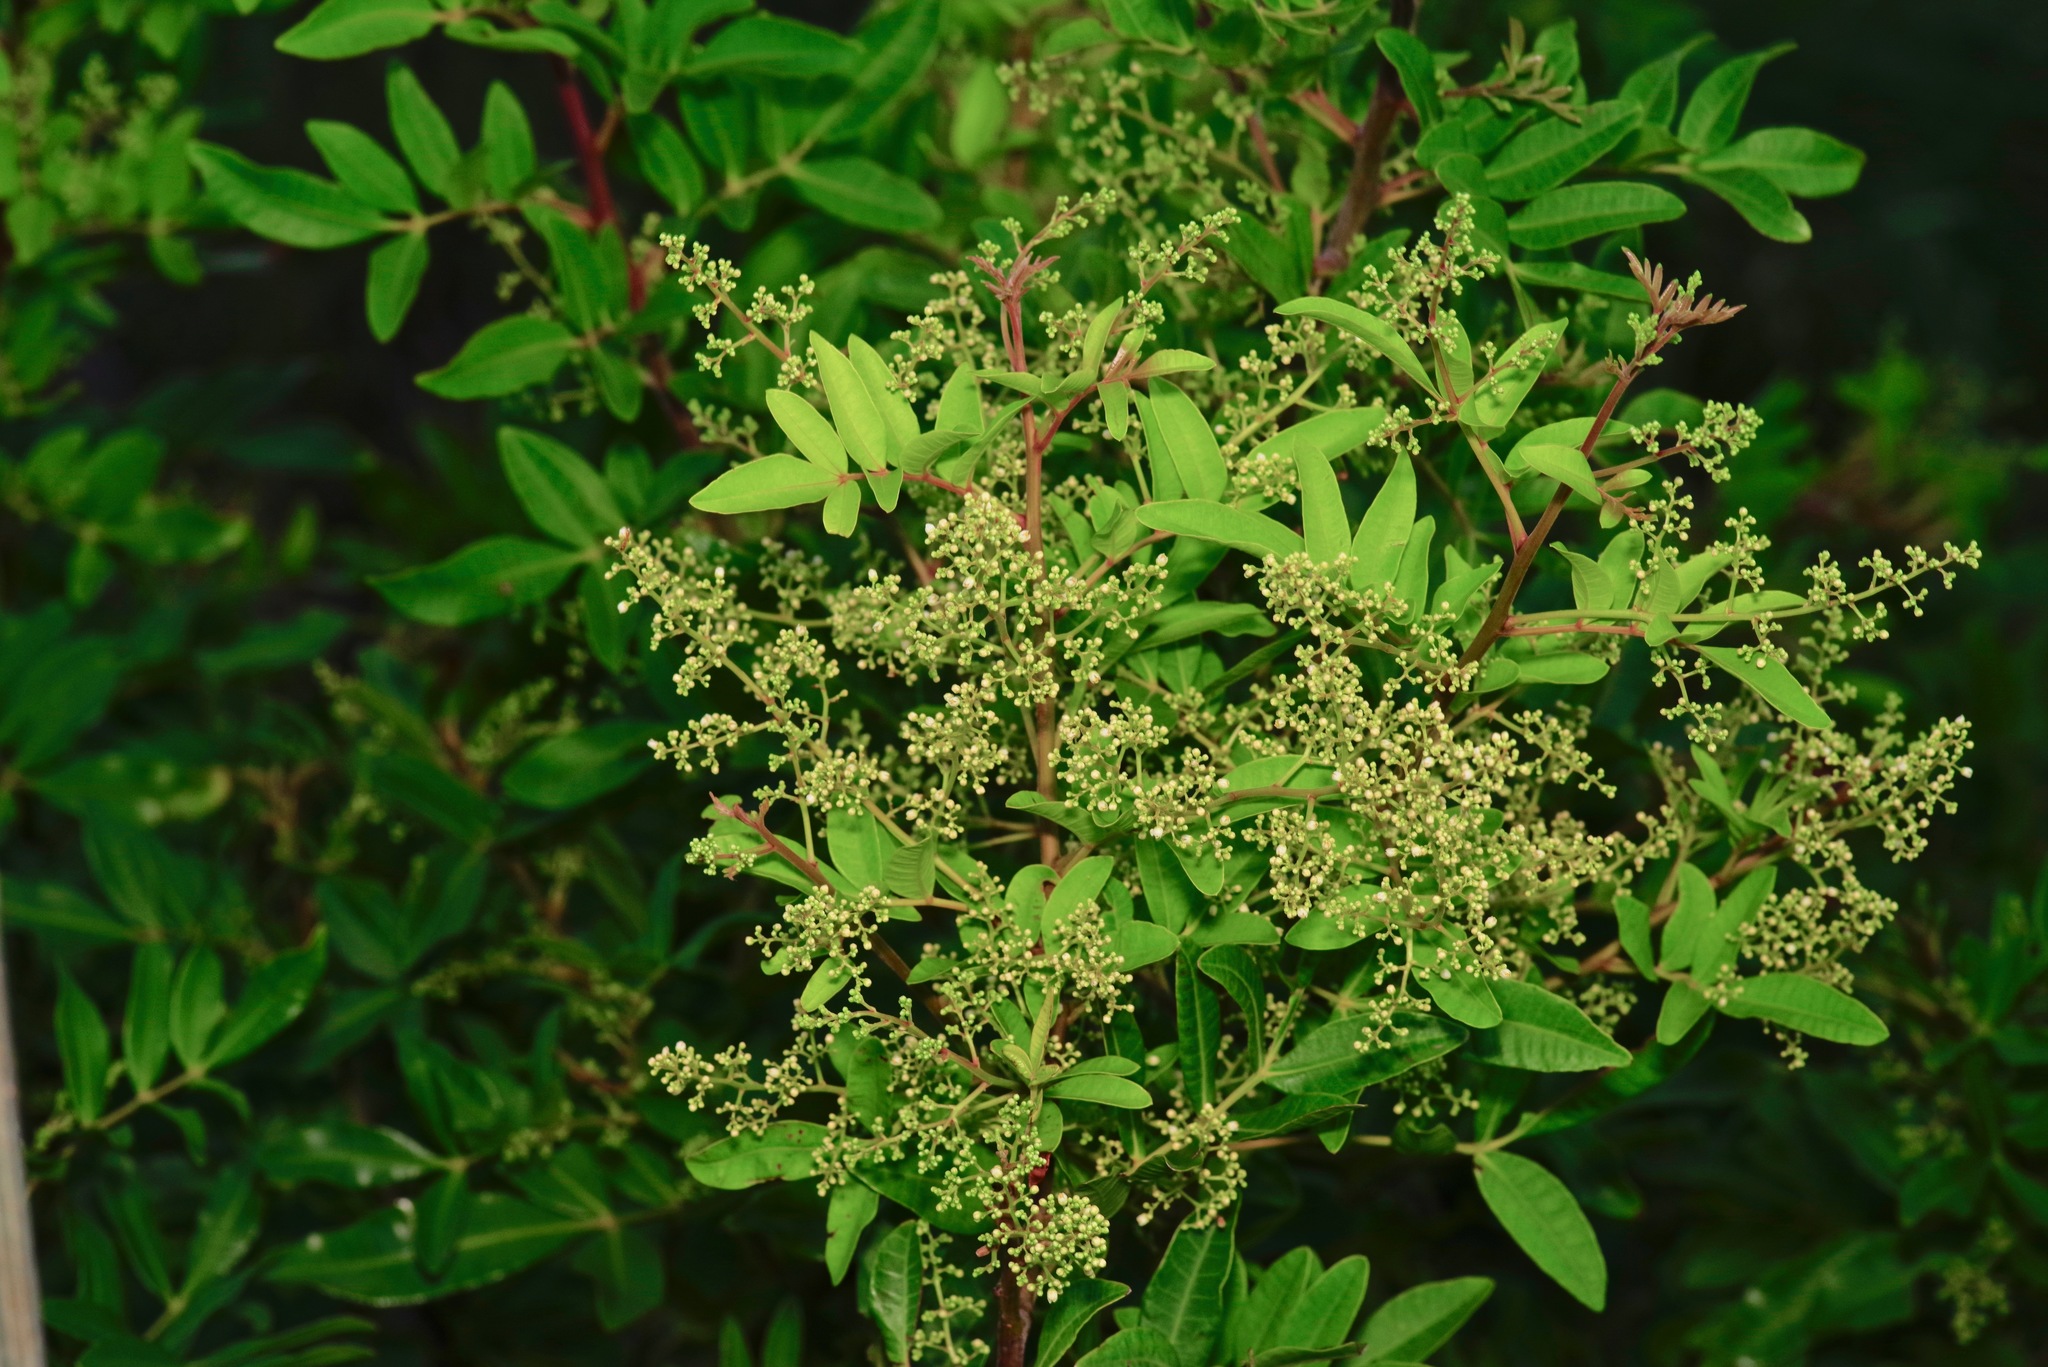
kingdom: Plantae
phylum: Tracheophyta
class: Magnoliopsida
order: Sapindales
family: Anacardiaceae
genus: Schinus
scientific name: Schinus terebinthifolia
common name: Brazilian peppertree
